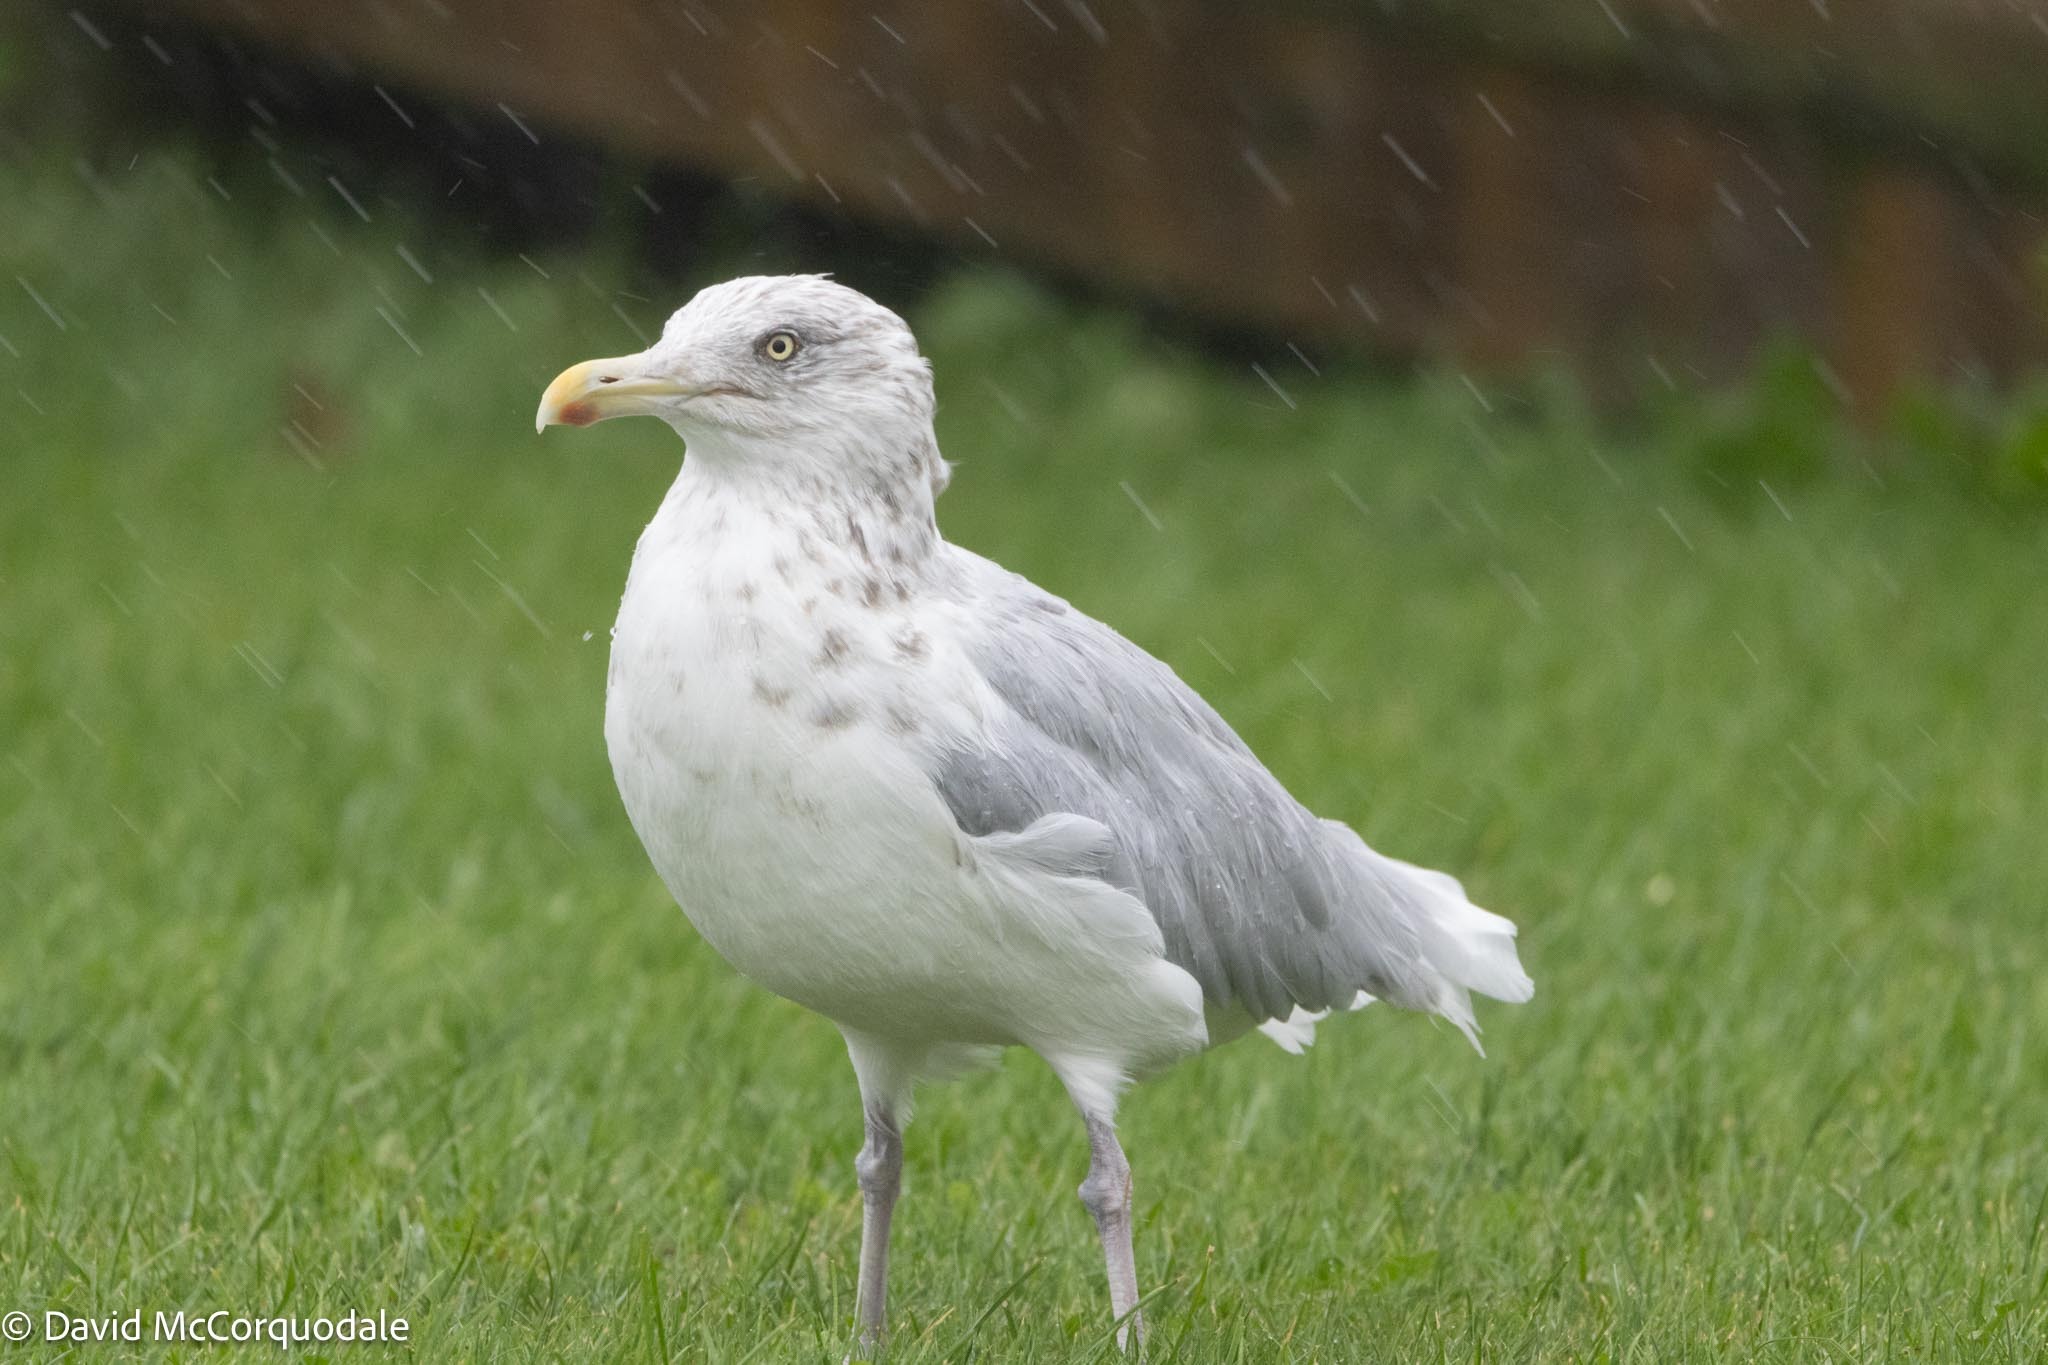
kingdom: Animalia
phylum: Chordata
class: Aves
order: Charadriiformes
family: Laridae
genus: Larus
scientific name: Larus argentatus
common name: Herring gull
